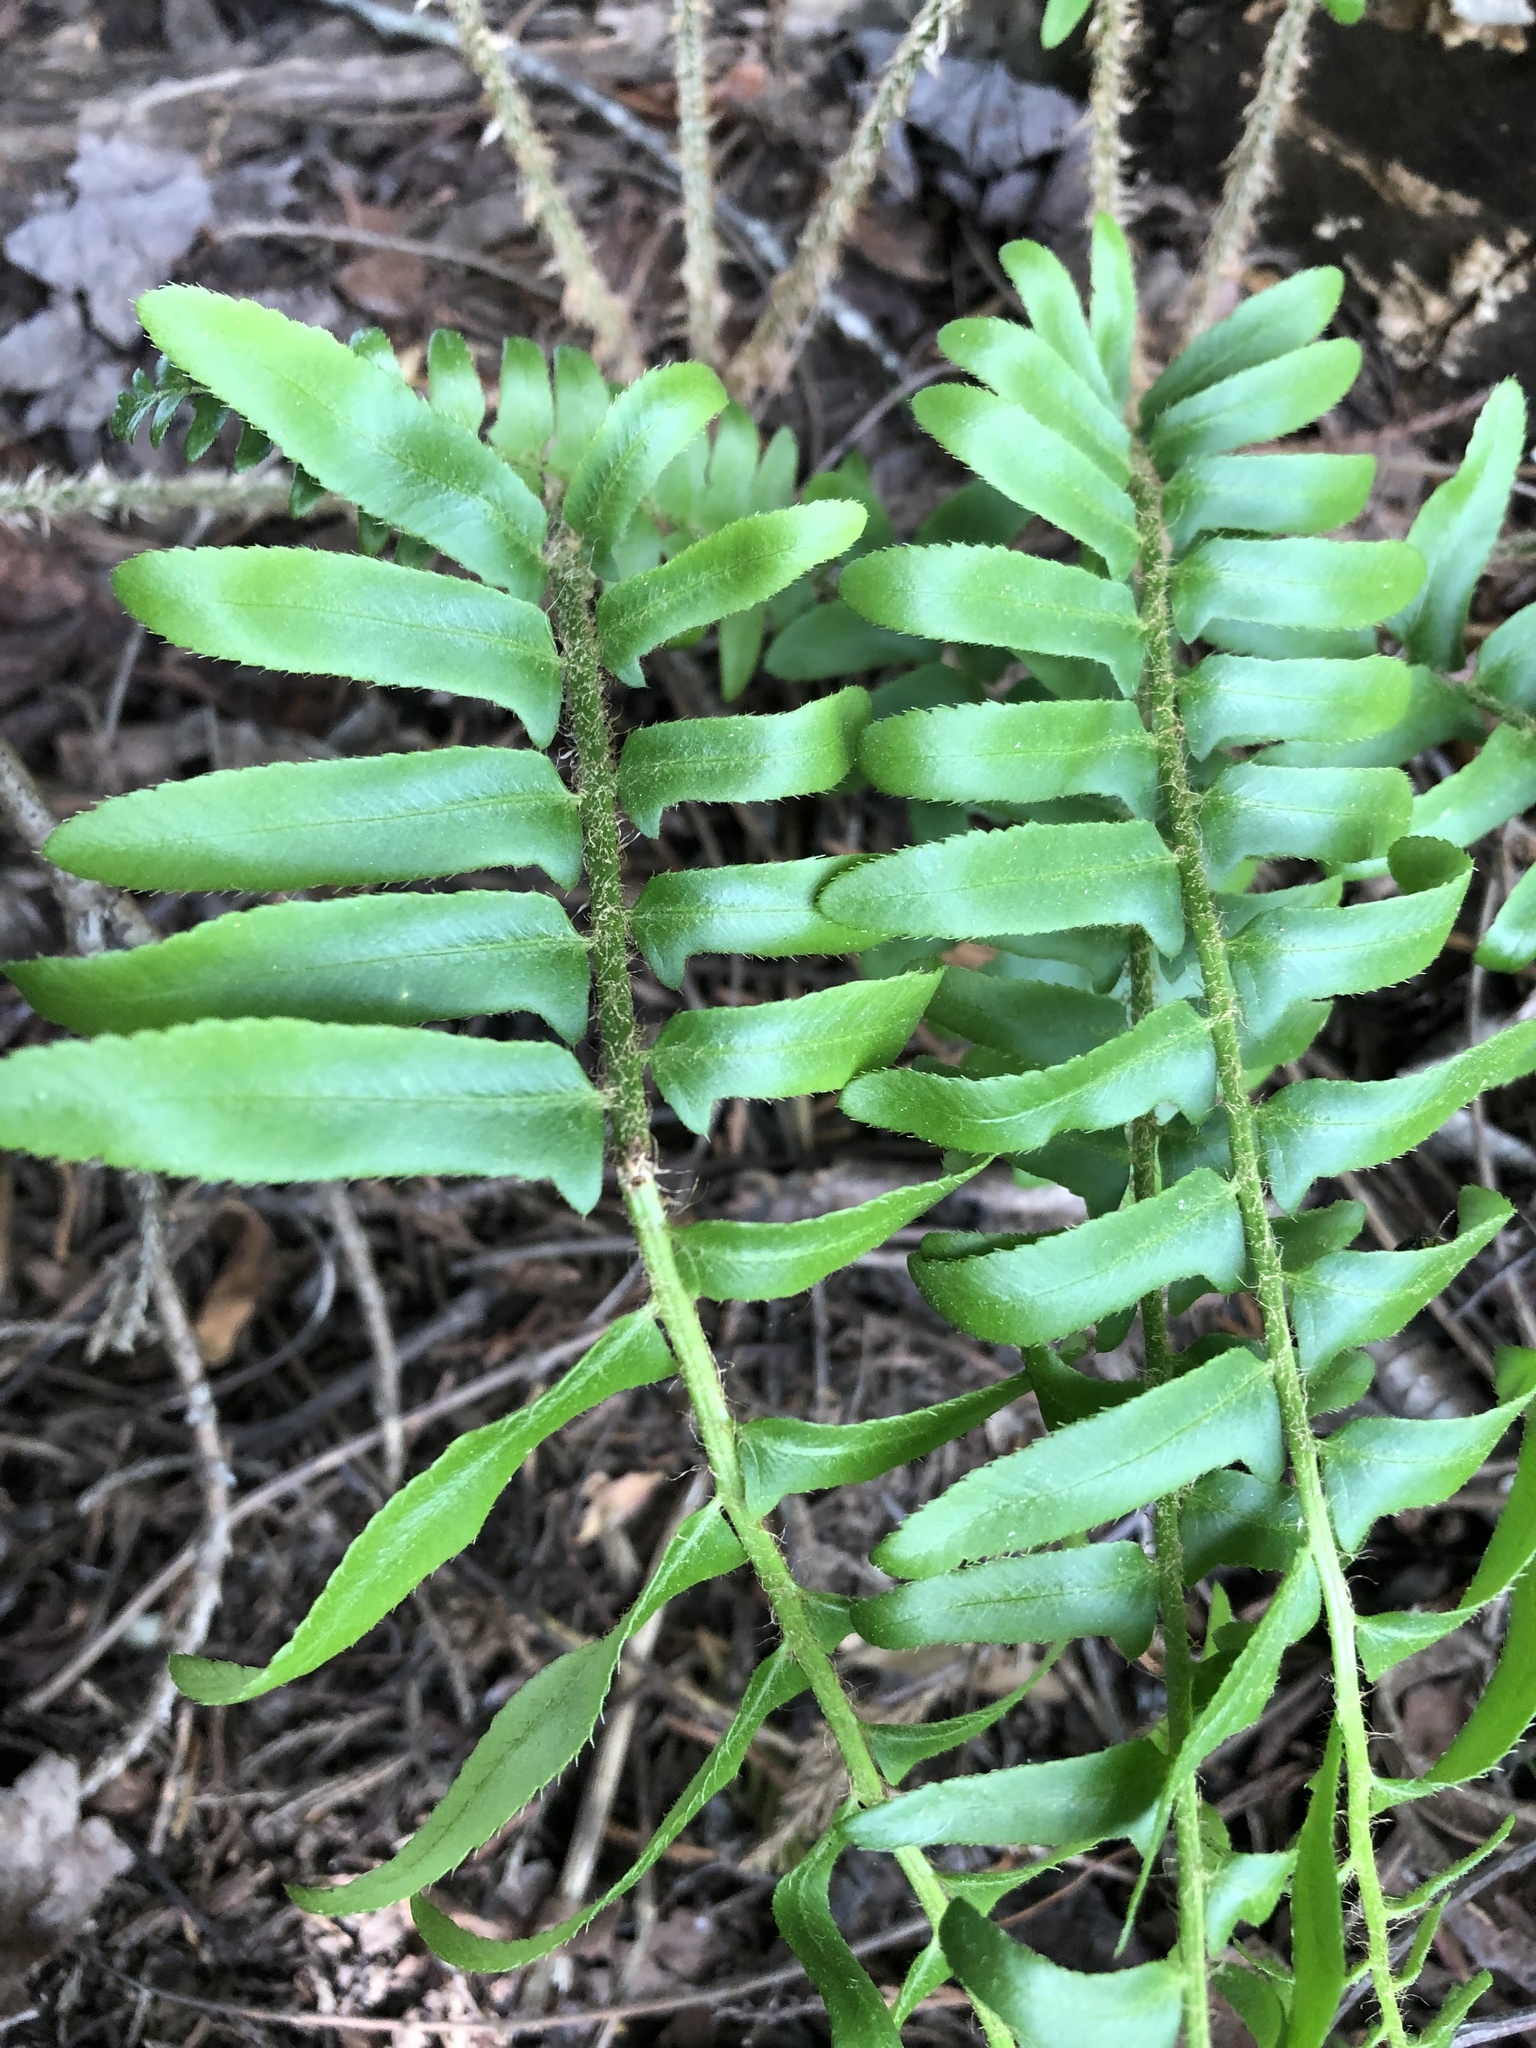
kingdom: Plantae
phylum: Tracheophyta
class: Polypodiopsida
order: Polypodiales
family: Dryopteridaceae
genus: Polystichum
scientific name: Polystichum acrostichoides
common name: Christmas fern
